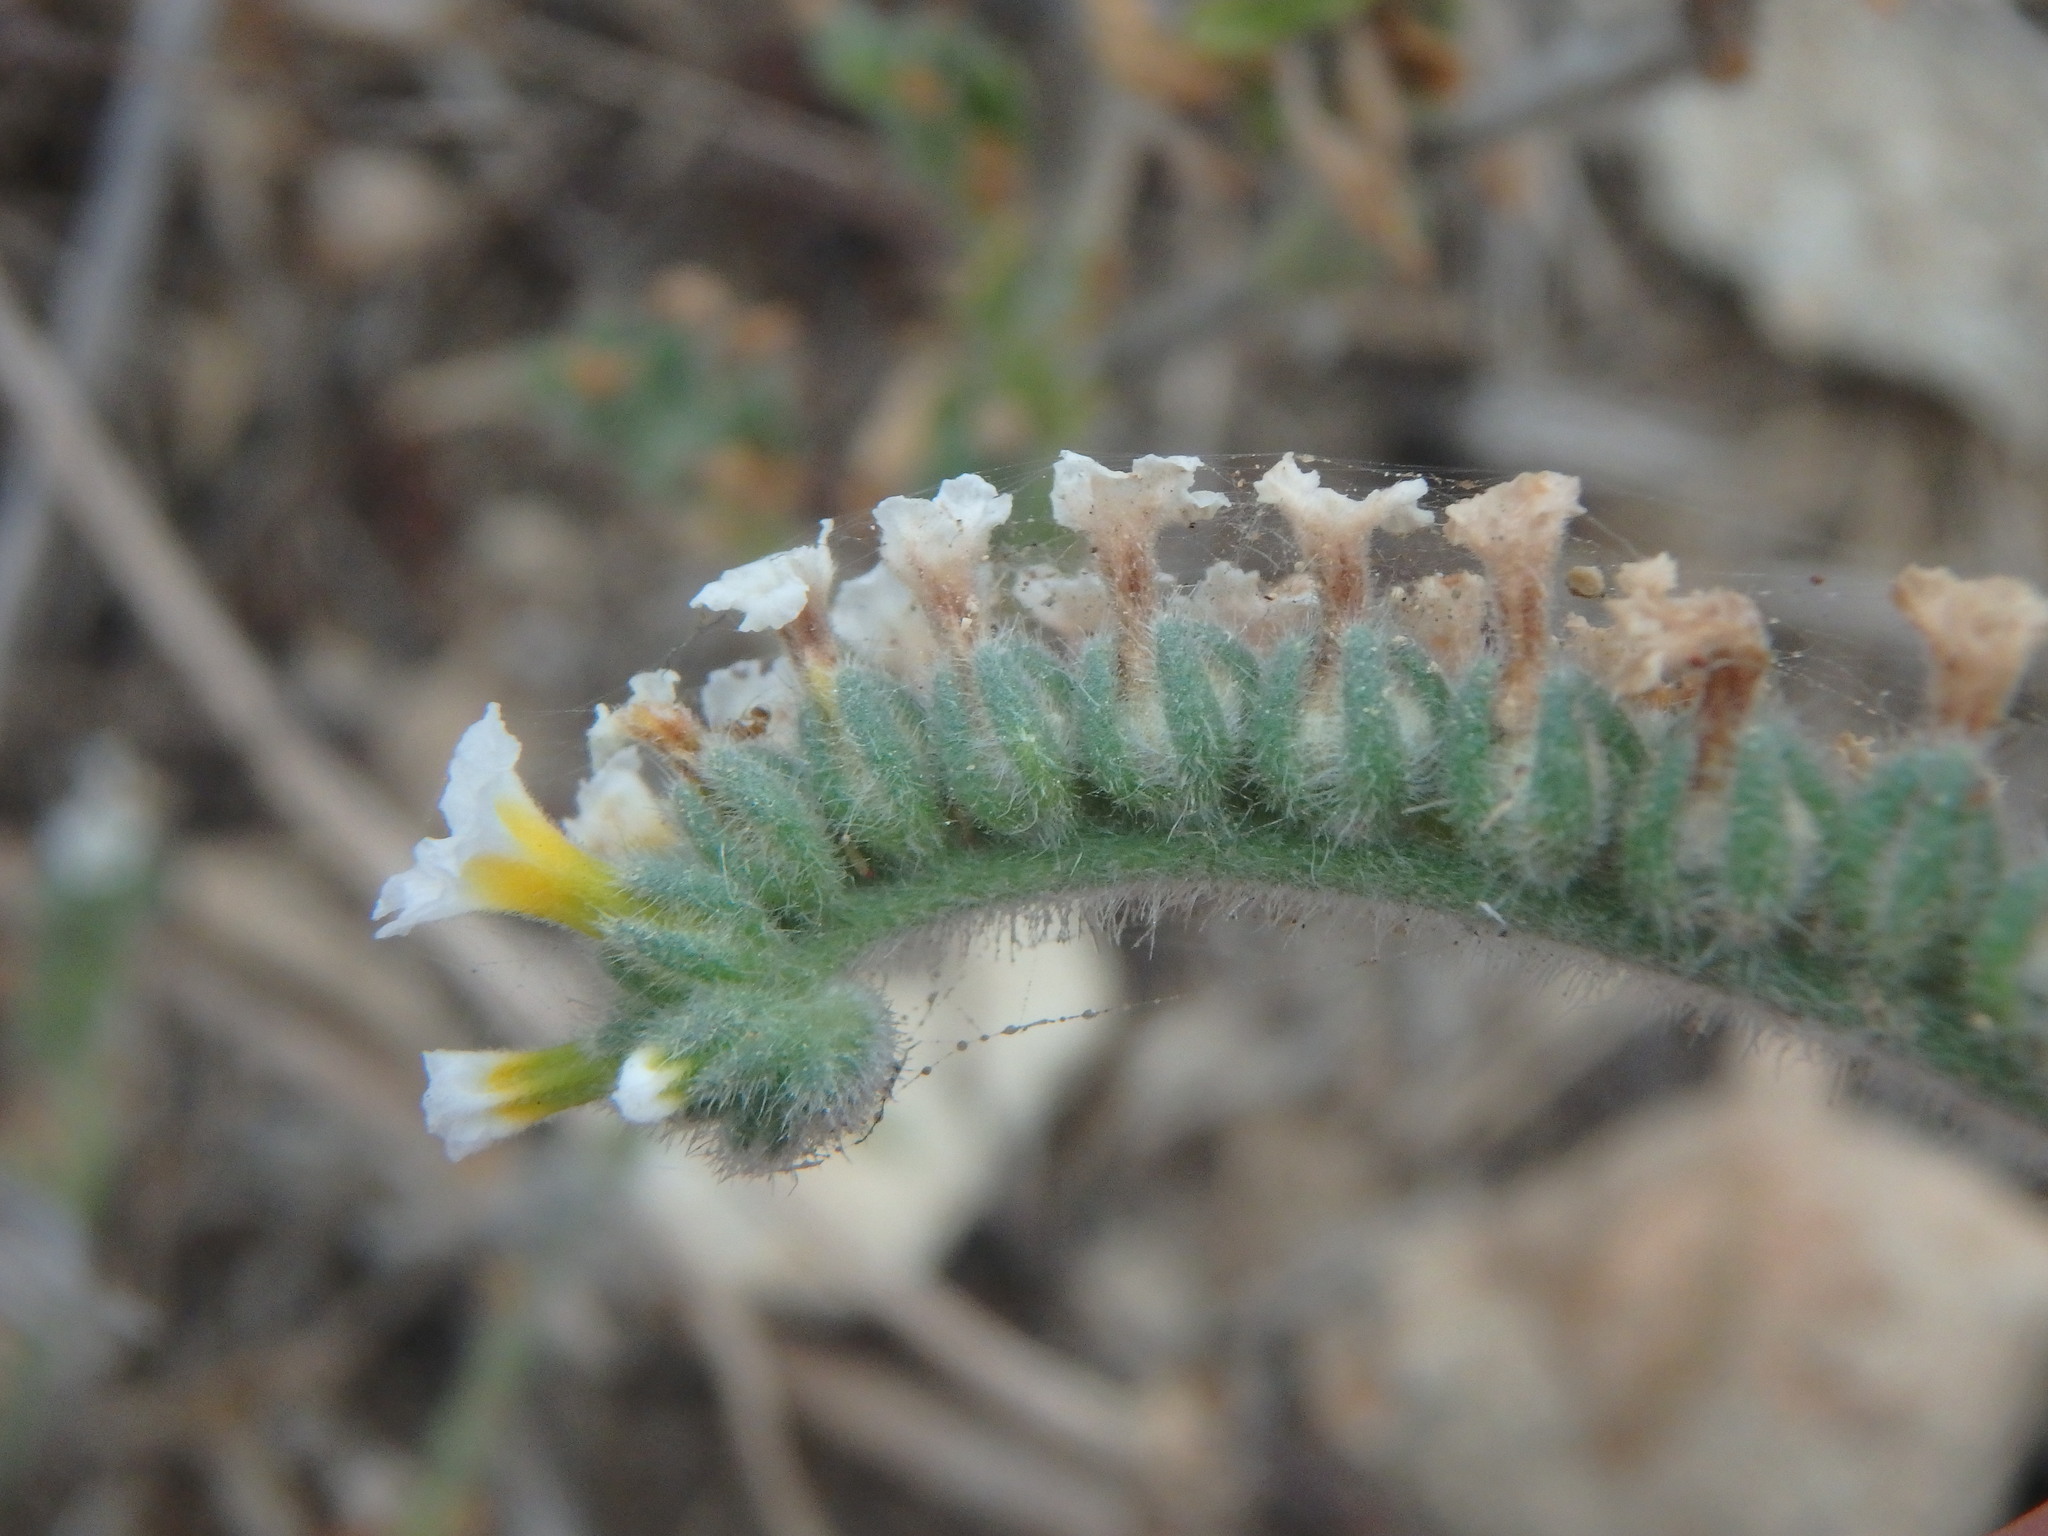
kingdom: Plantae
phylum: Tracheophyta
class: Magnoliopsida
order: Boraginales
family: Heliotropiaceae
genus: Heliotropium
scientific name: Heliotropium hirsutissimum
